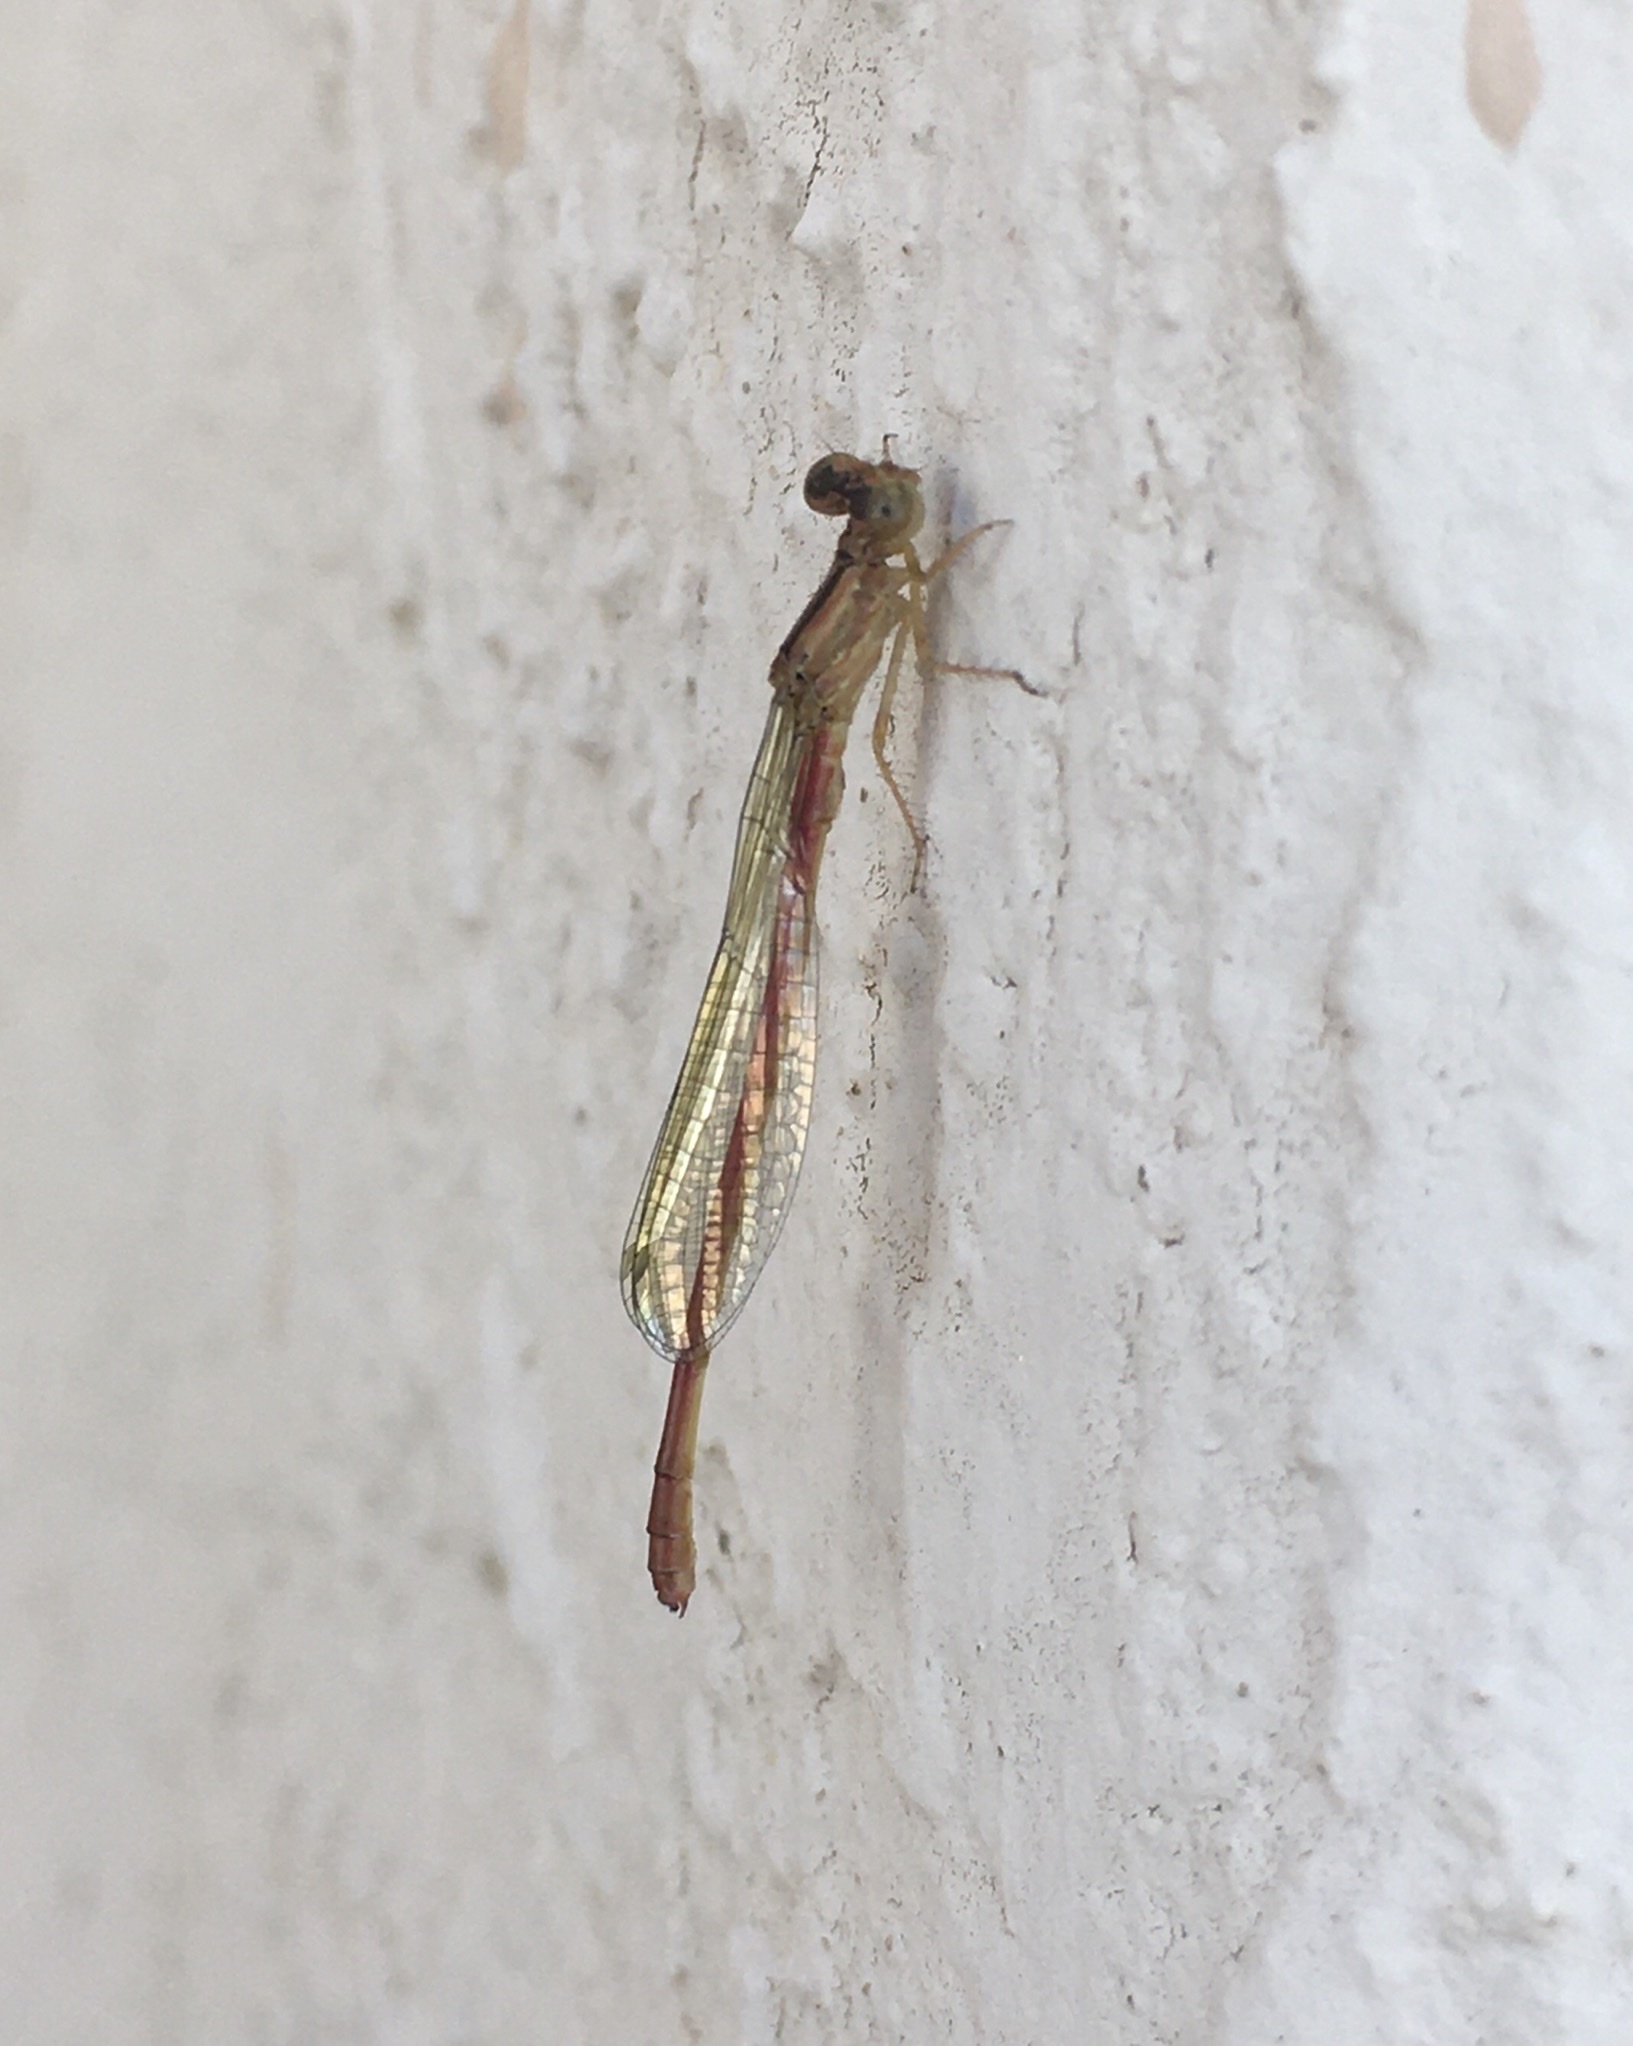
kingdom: Animalia
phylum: Arthropoda
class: Insecta
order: Odonata
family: Coenagrionidae
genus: Telebasis
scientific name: Telebasis salva
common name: Desert firetail
